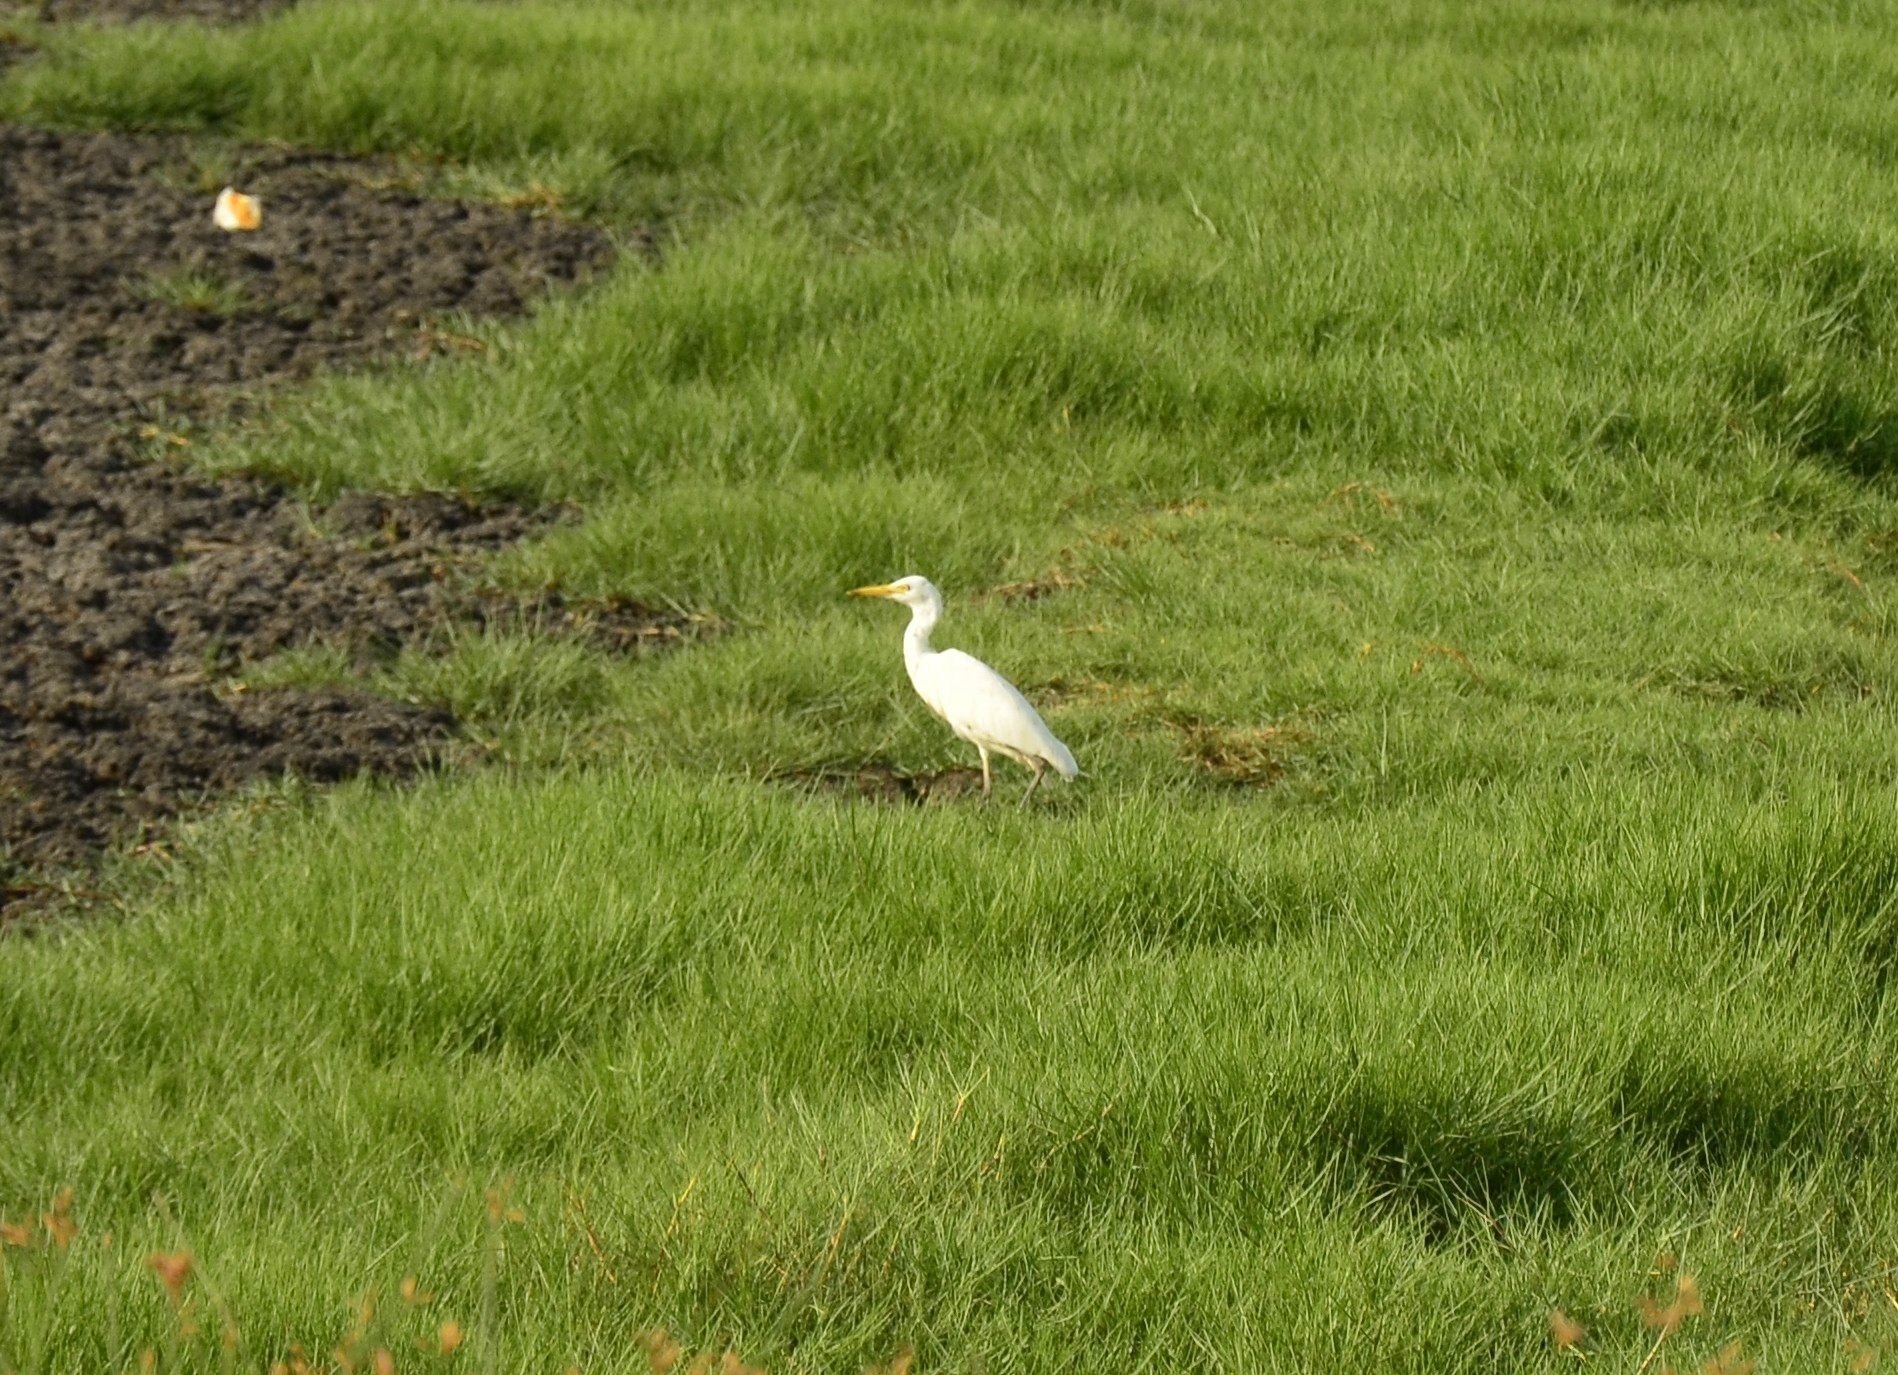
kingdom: Animalia
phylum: Chordata
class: Aves
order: Pelecaniformes
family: Ardeidae
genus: Bubulcus
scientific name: Bubulcus coromandus
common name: Eastern cattle egret
